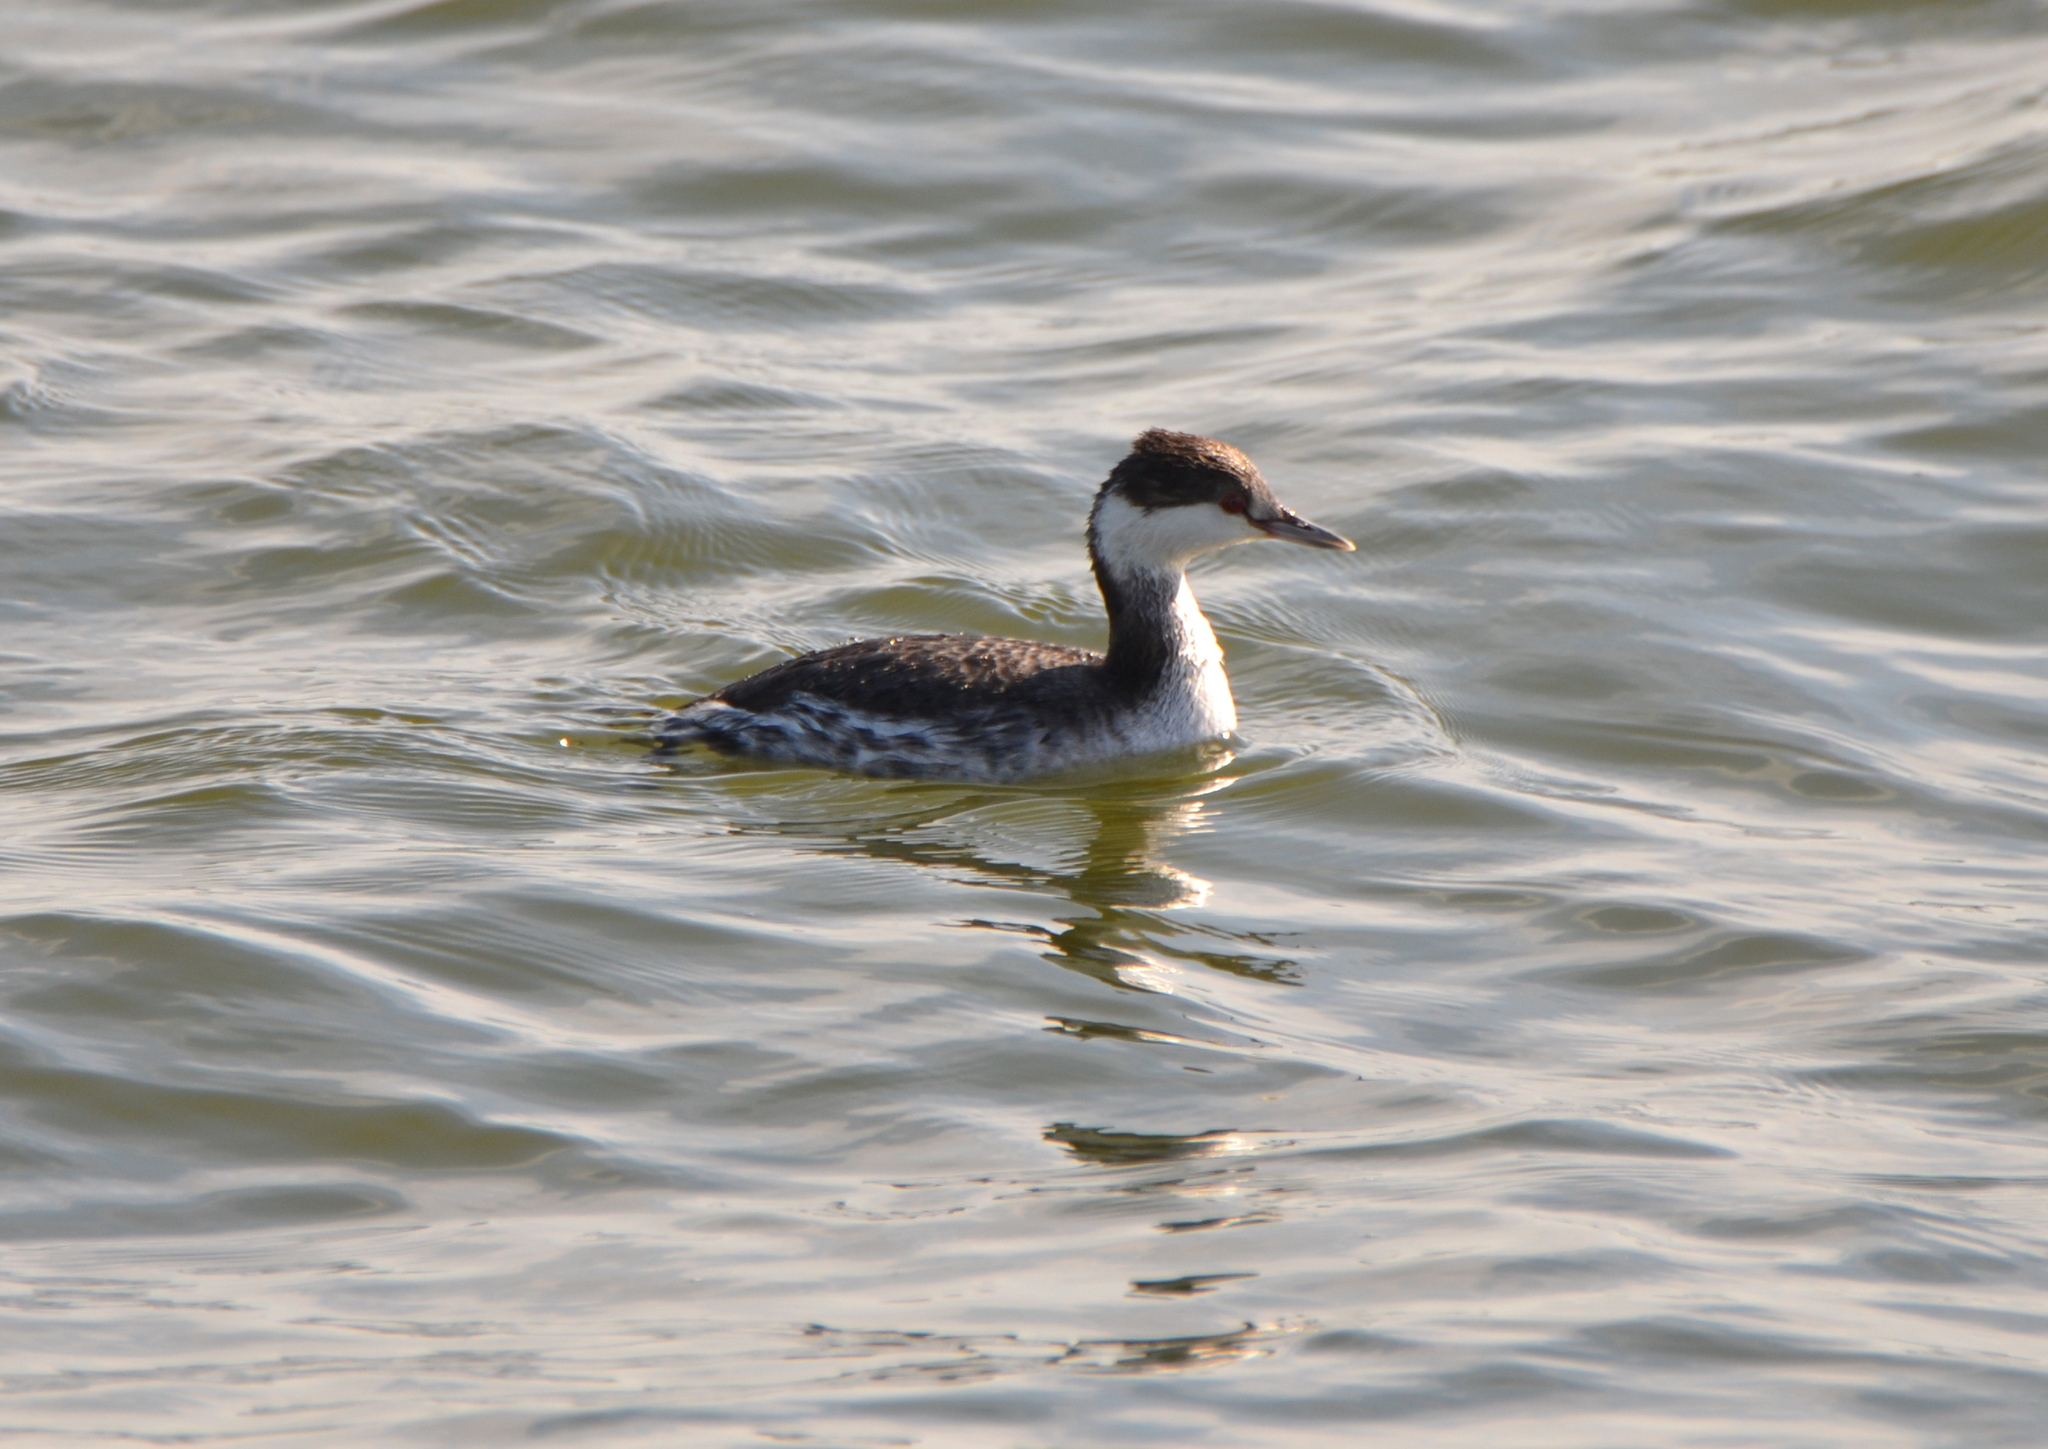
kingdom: Animalia
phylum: Chordata
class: Aves
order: Podicipediformes
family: Podicipedidae
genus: Podiceps
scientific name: Podiceps auritus
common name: Horned grebe
